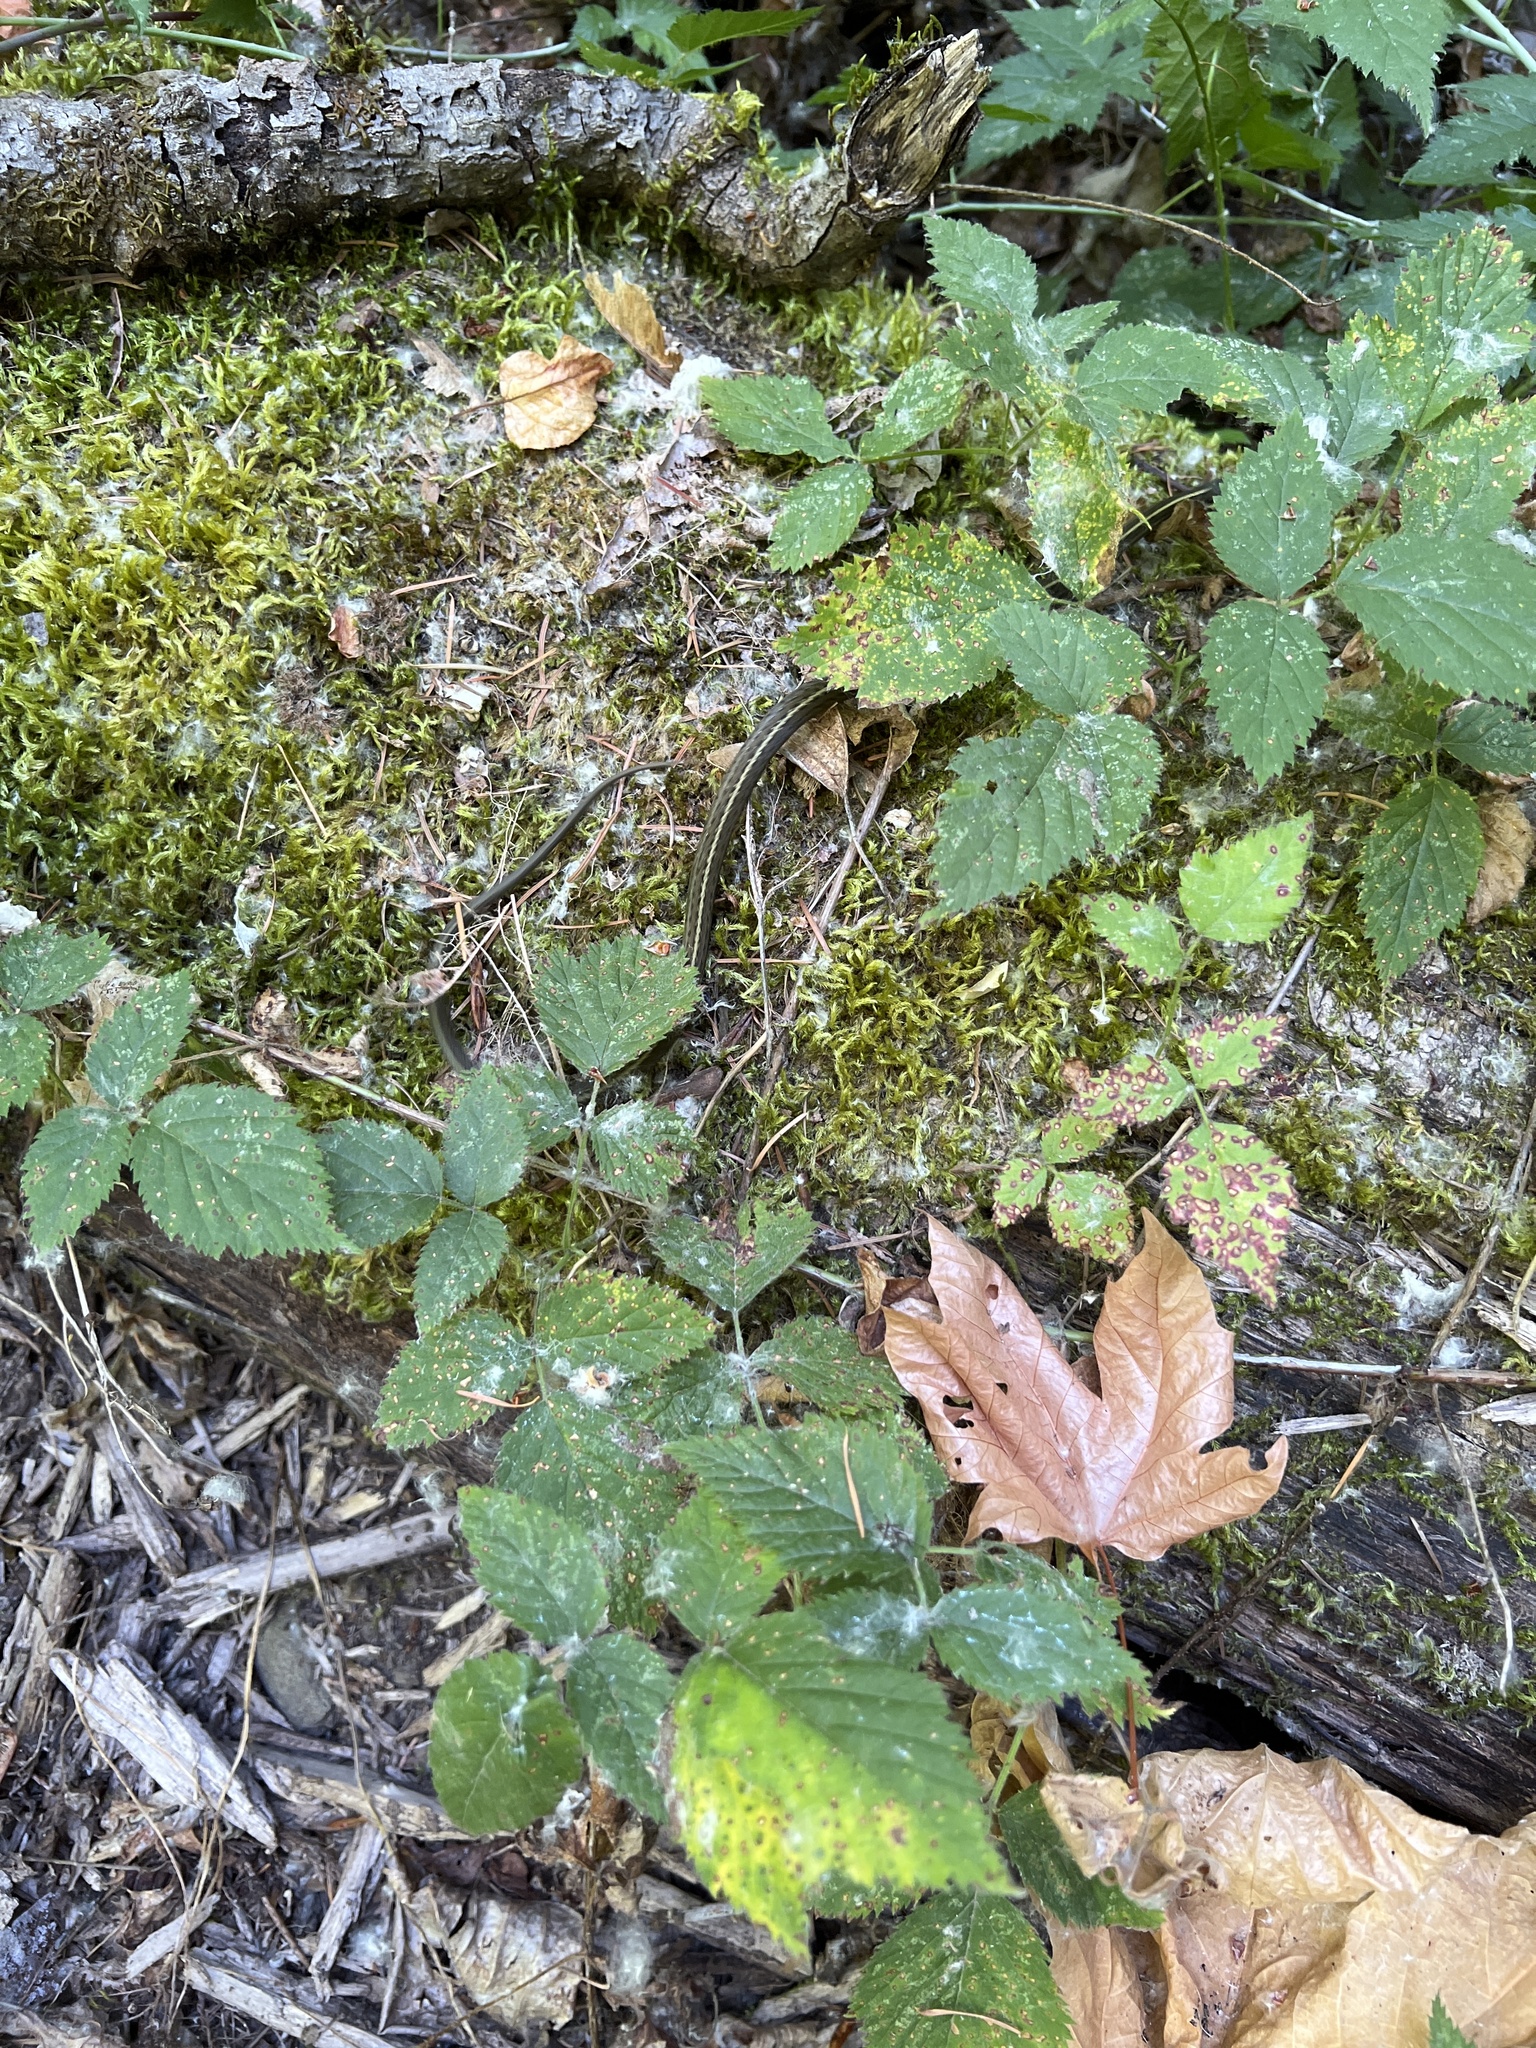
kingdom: Animalia
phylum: Chordata
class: Squamata
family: Colubridae
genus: Thamnophis
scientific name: Thamnophis ordinoides
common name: Northwestern garter snake
